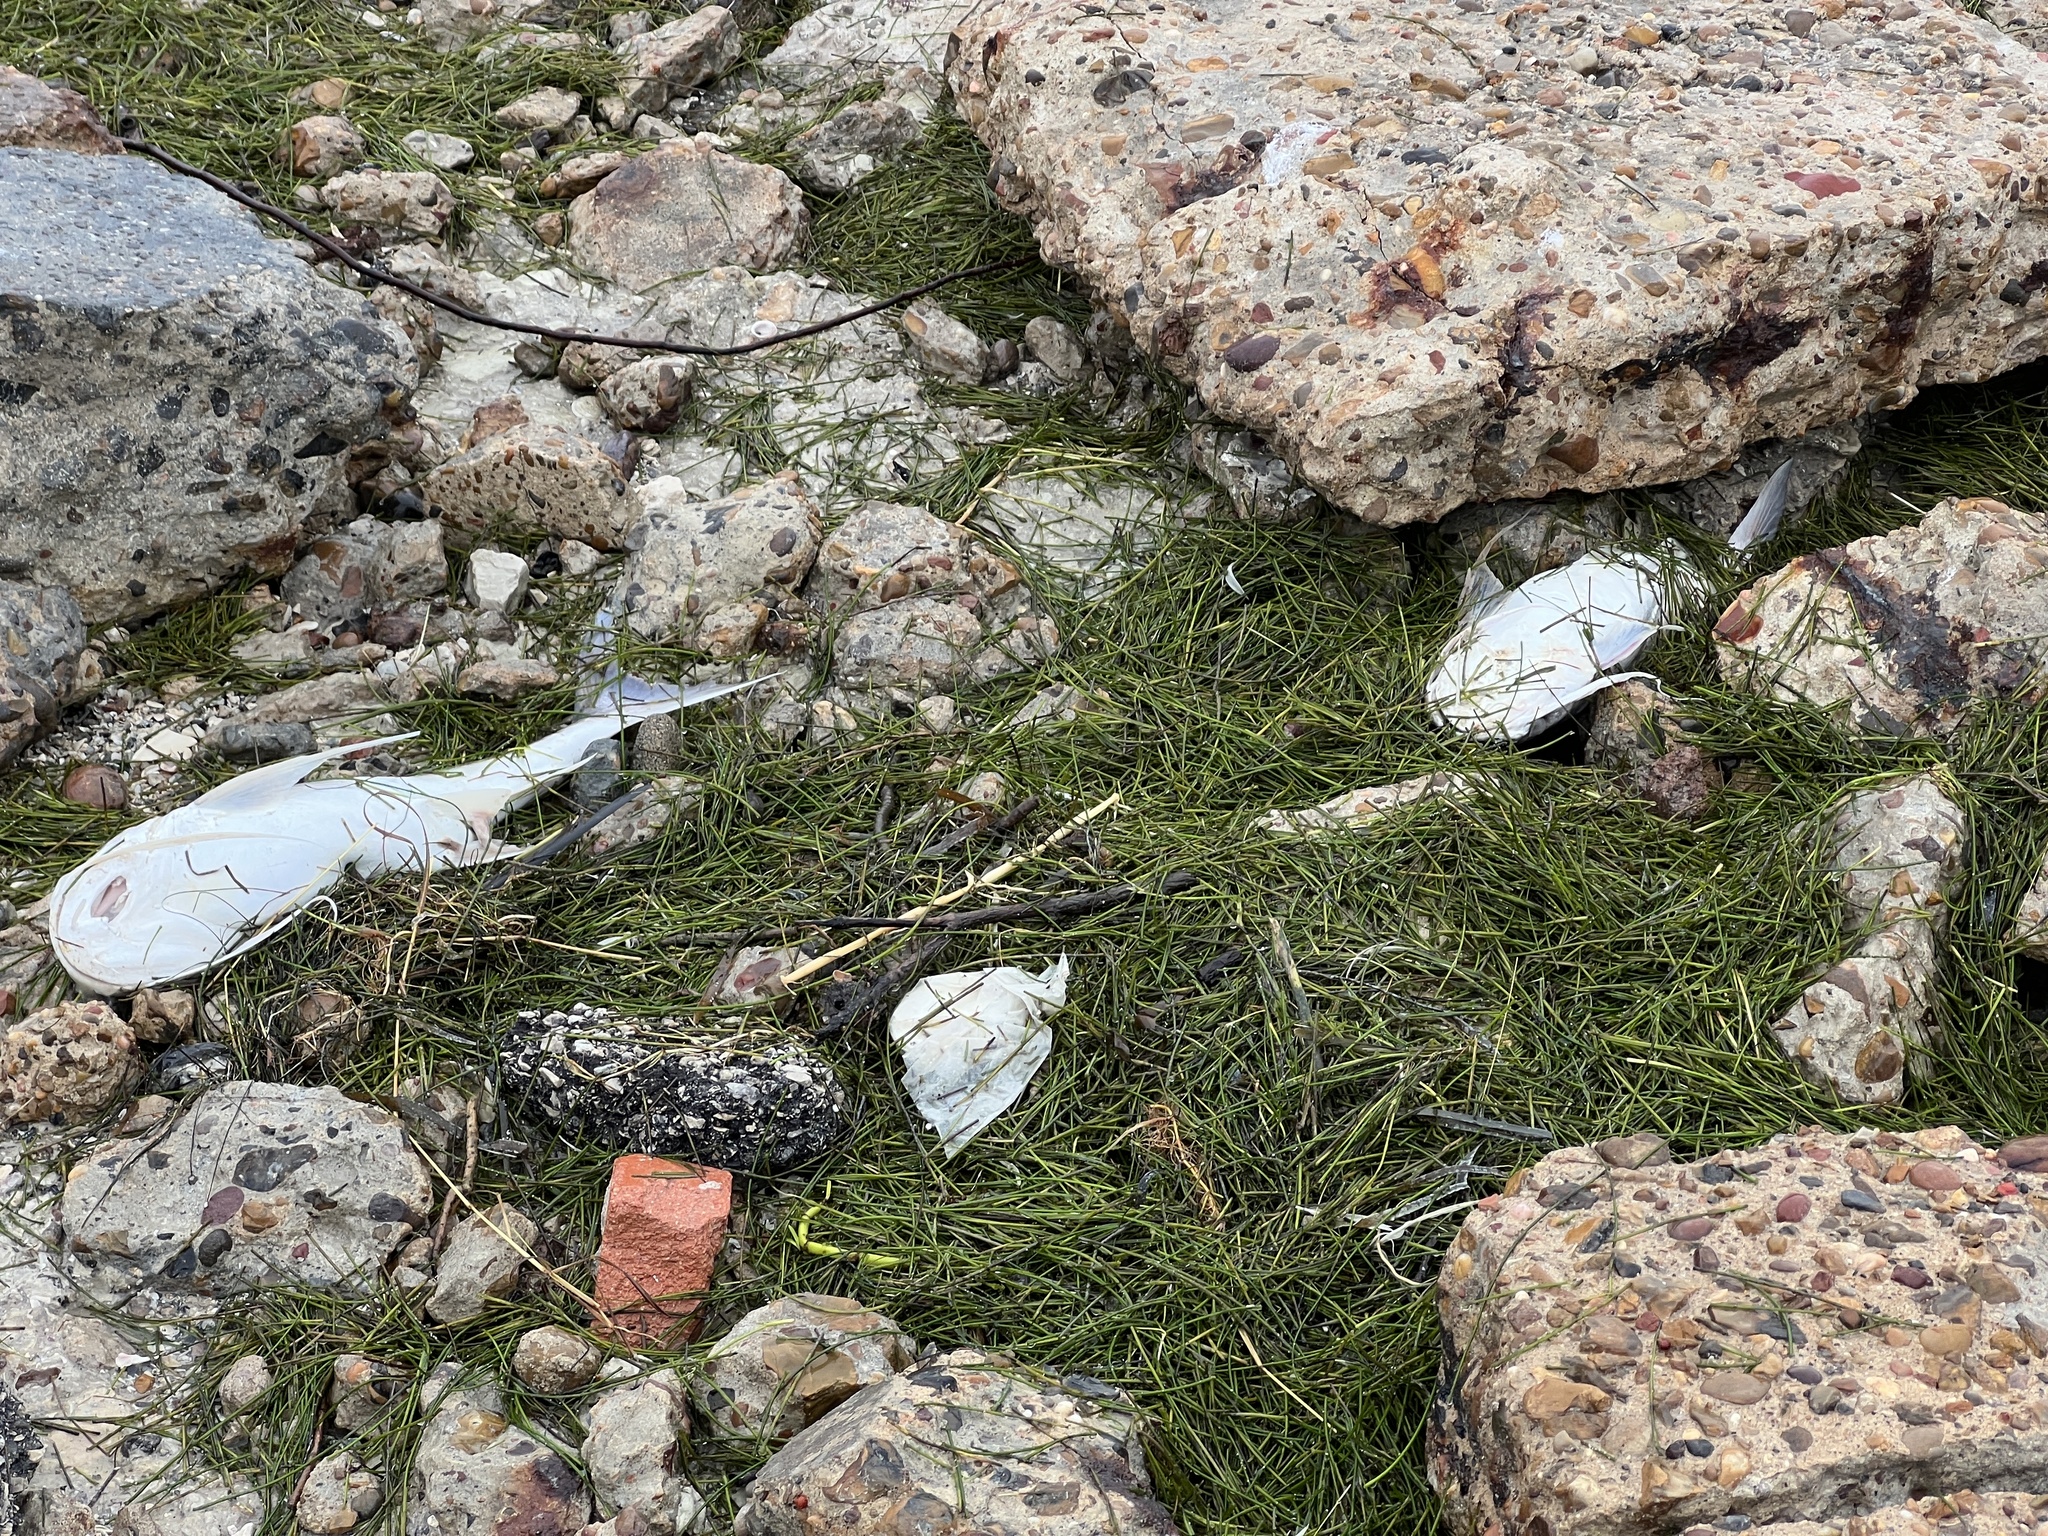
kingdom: Animalia
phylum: Chordata
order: Siluriformes
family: Ariidae
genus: Bagre
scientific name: Bagre marinus
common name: Gafftopsail sea catfish
